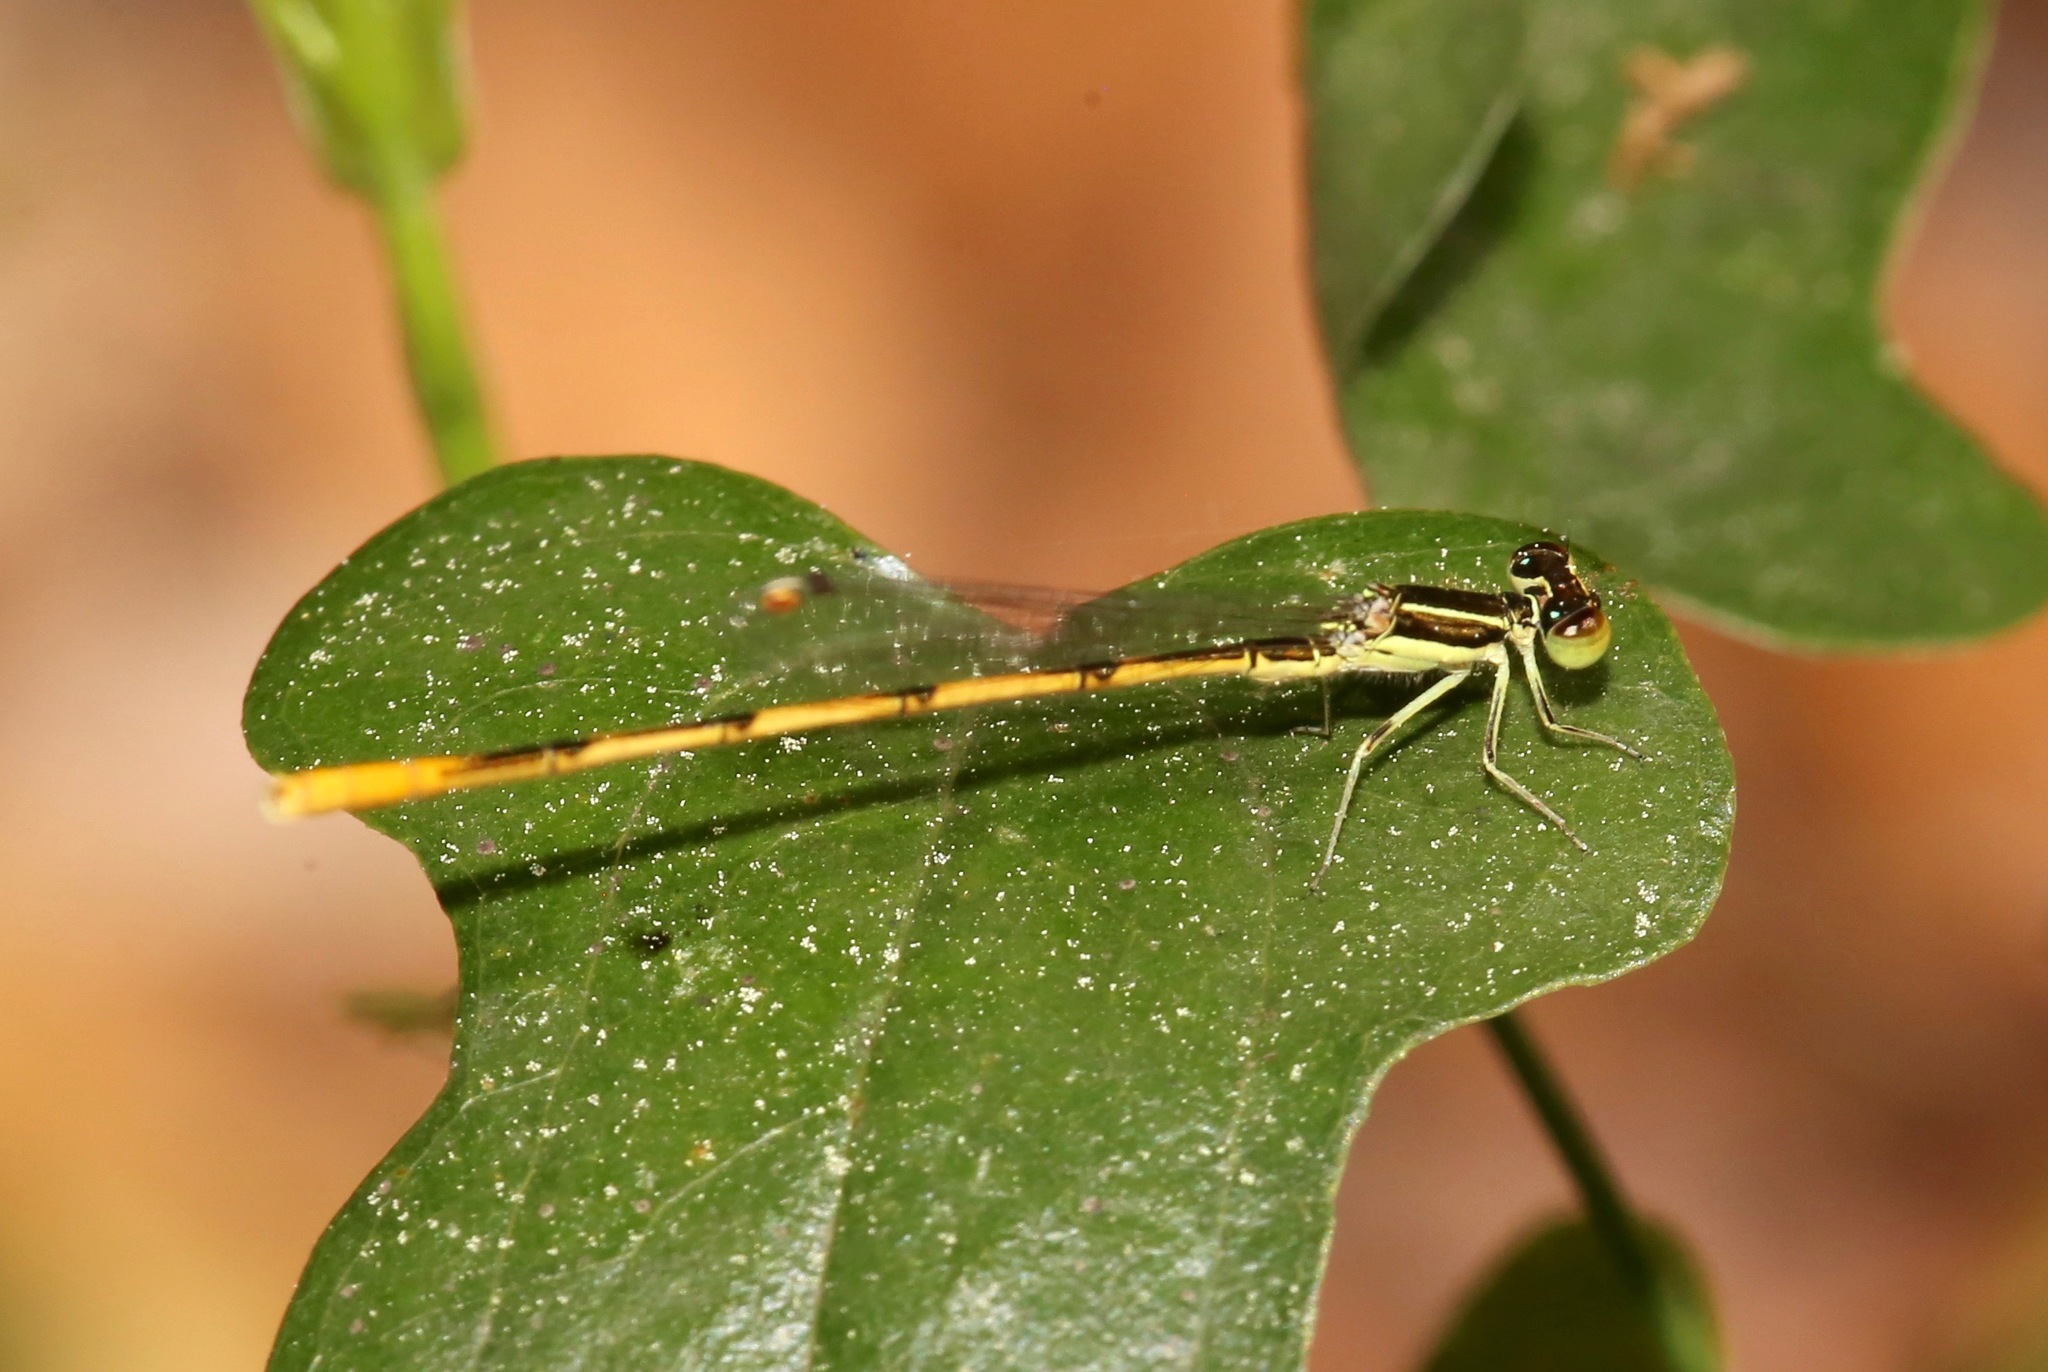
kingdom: Animalia
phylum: Arthropoda
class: Insecta
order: Odonata
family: Coenagrionidae
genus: Ischnura
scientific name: Ischnura hastata
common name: Citrine forktail
